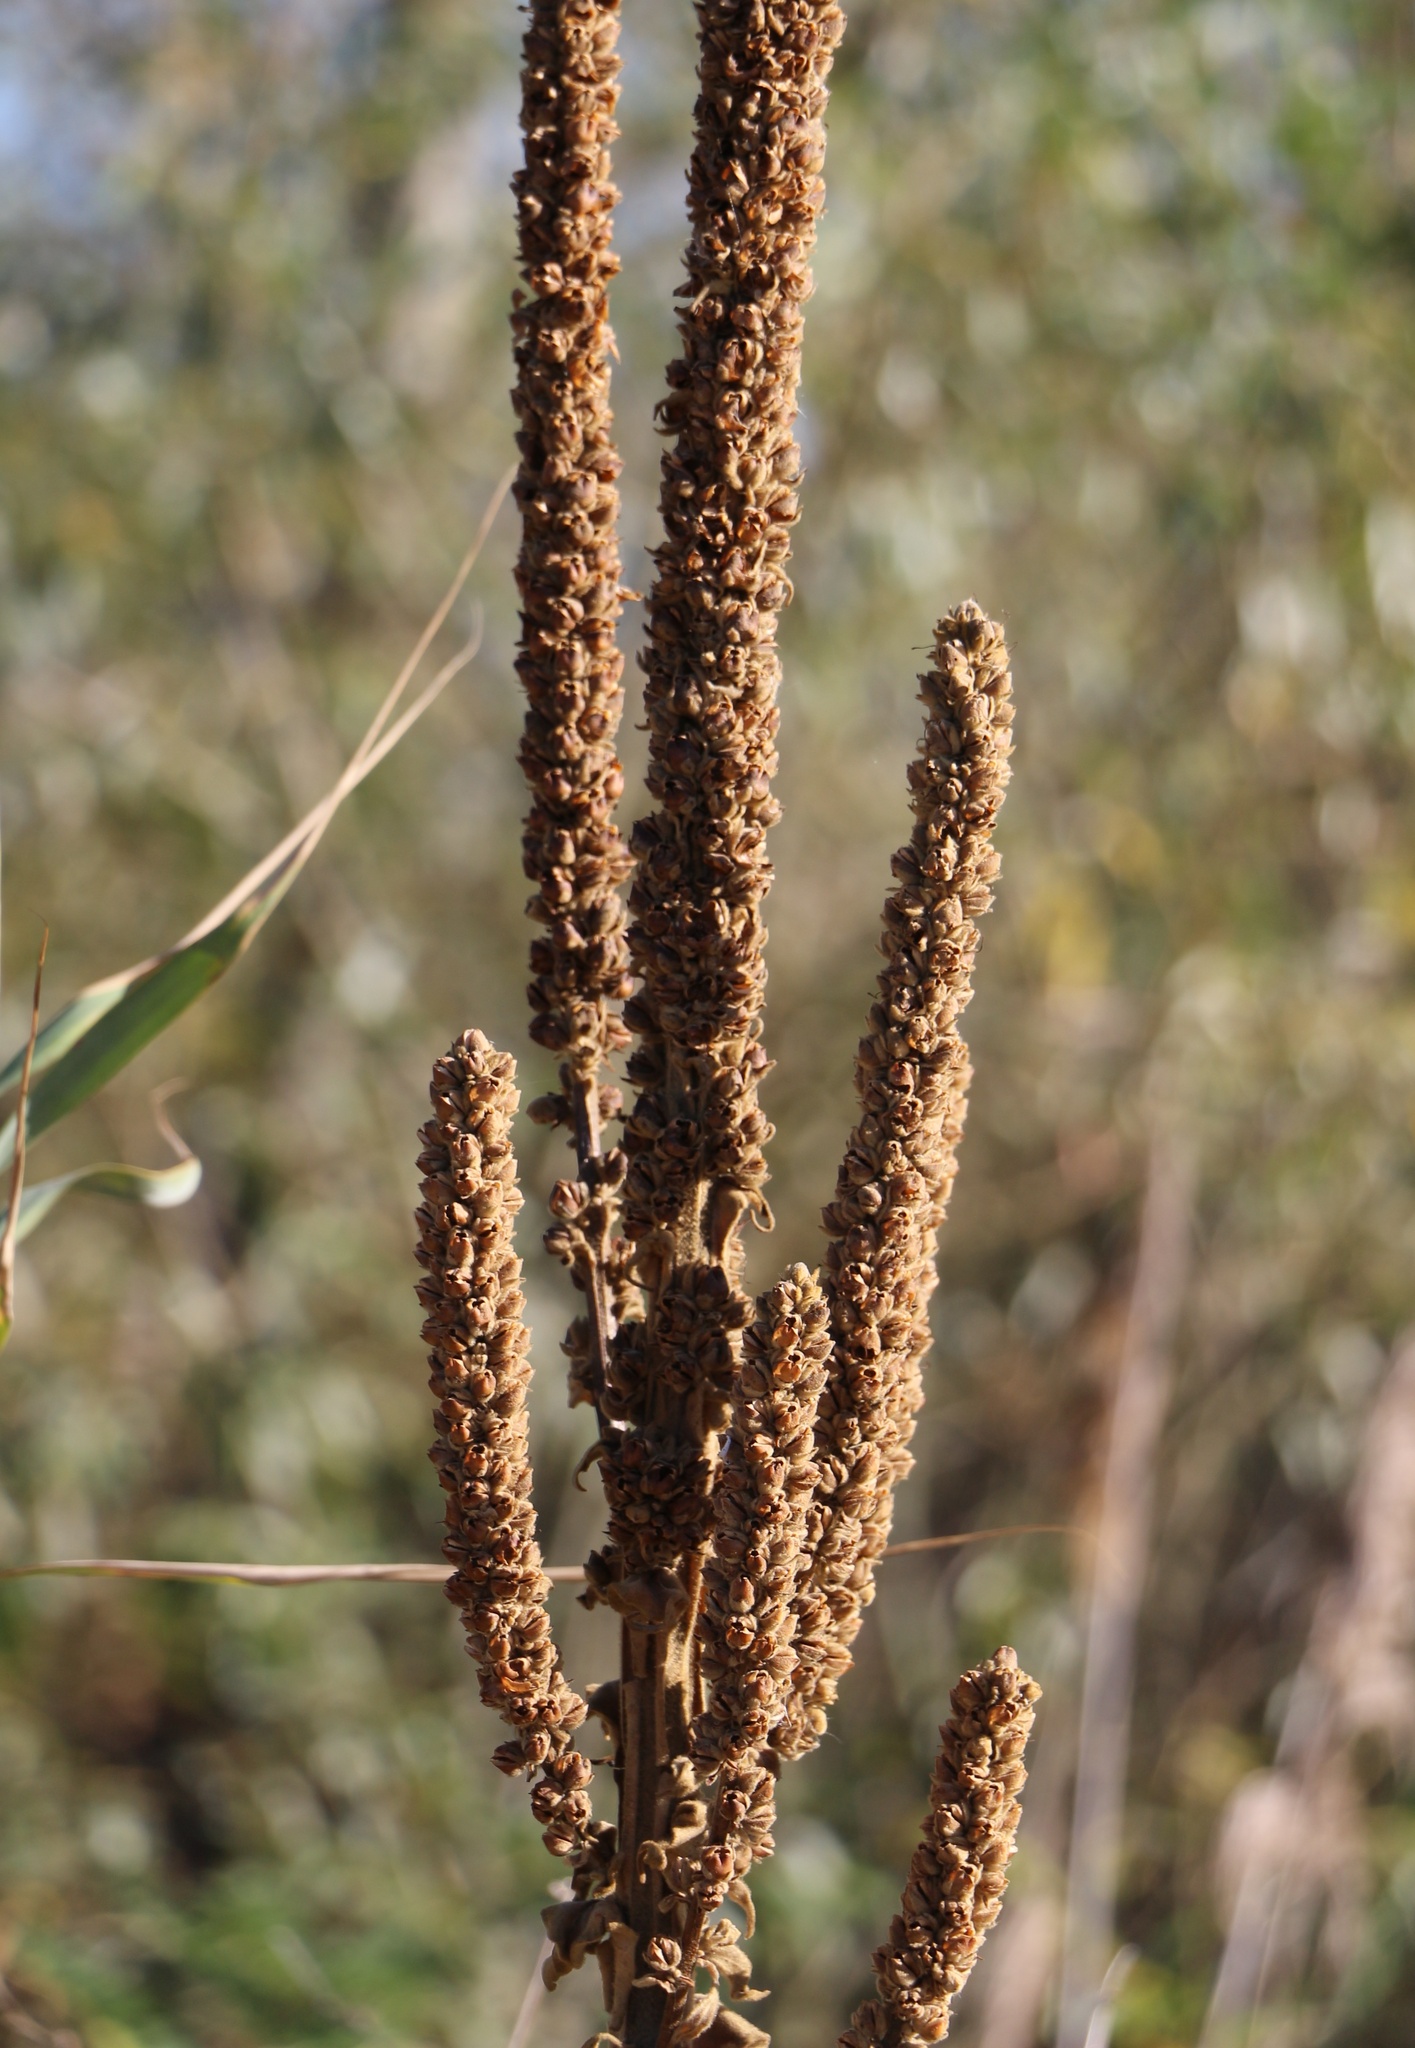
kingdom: Plantae
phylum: Tracheophyta
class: Magnoliopsida
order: Lamiales
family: Scrophulariaceae
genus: Verbascum
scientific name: Verbascum thapsus
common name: Common mullein
